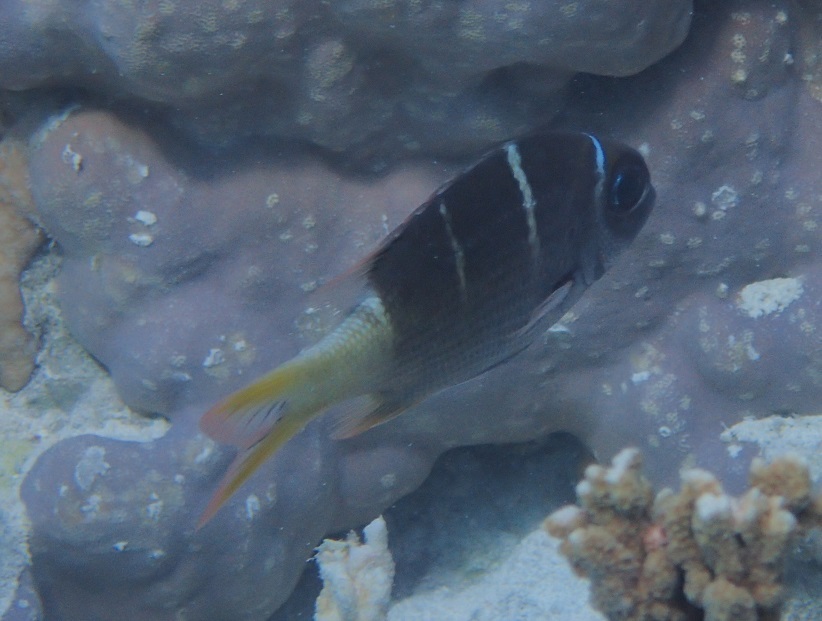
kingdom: Animalia
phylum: Chordata
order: Perciformes
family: Lethrinidae
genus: Monotaxis
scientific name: Monotaxis heterodon
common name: Redfin emperor
